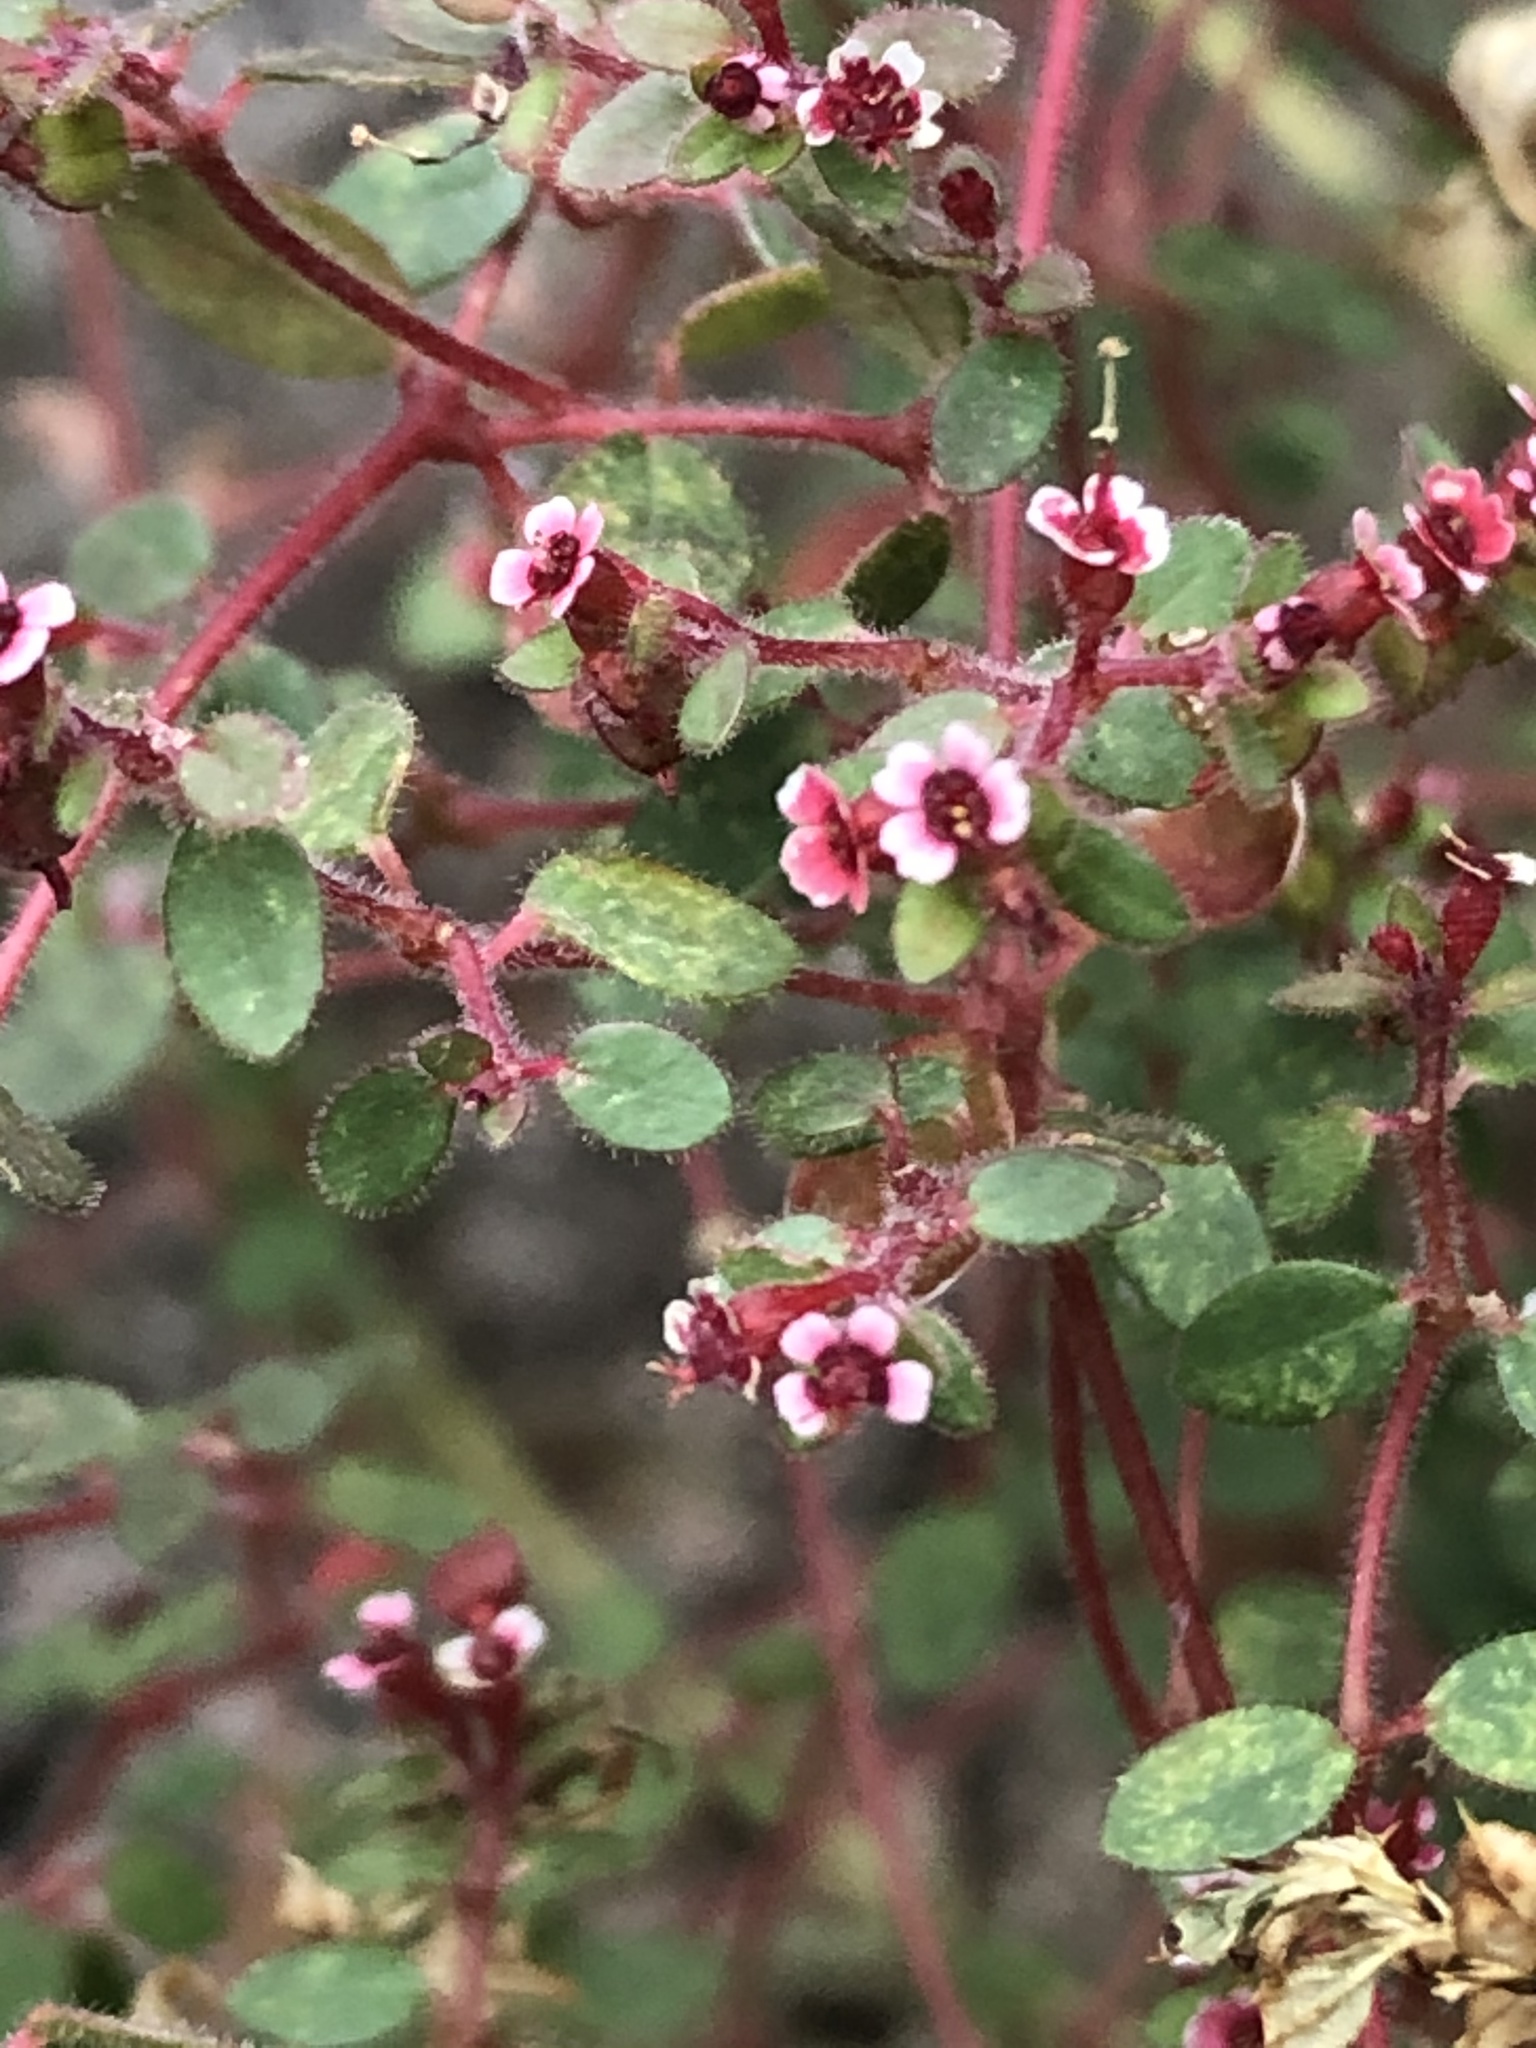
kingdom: Plantae
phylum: Tracheophyta
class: Magnoliopsida
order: Malpighiales
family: Euphorbiaceae
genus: Euphorbia
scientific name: Euphorbia arizonica
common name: Arizona spurge
